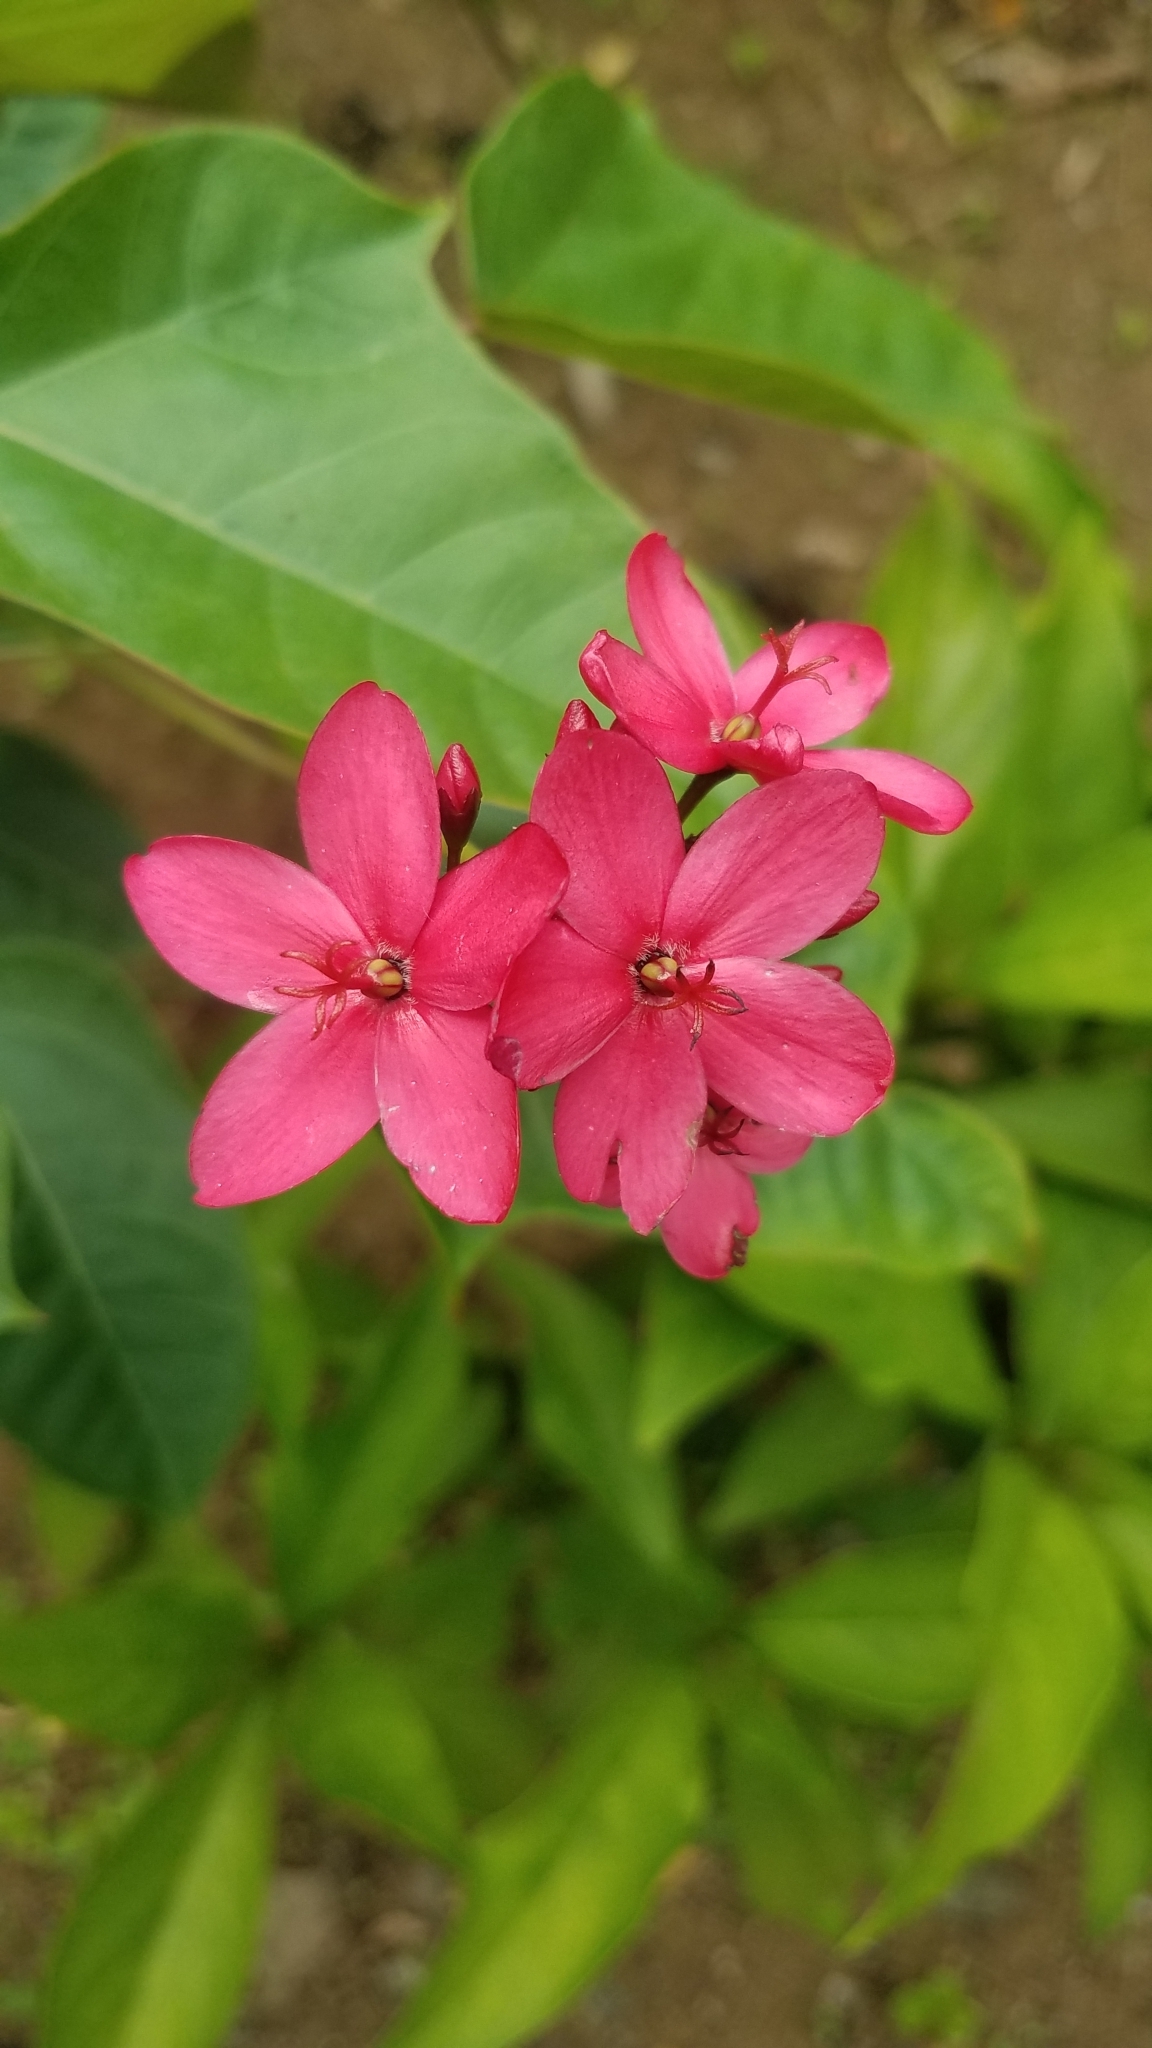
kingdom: Plantae
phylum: Tracheophyta
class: Magnoliopsida
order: Malpighiales
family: Euphorbiaceae
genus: Jatropha
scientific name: Jatropha integerrima
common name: Peregrina
